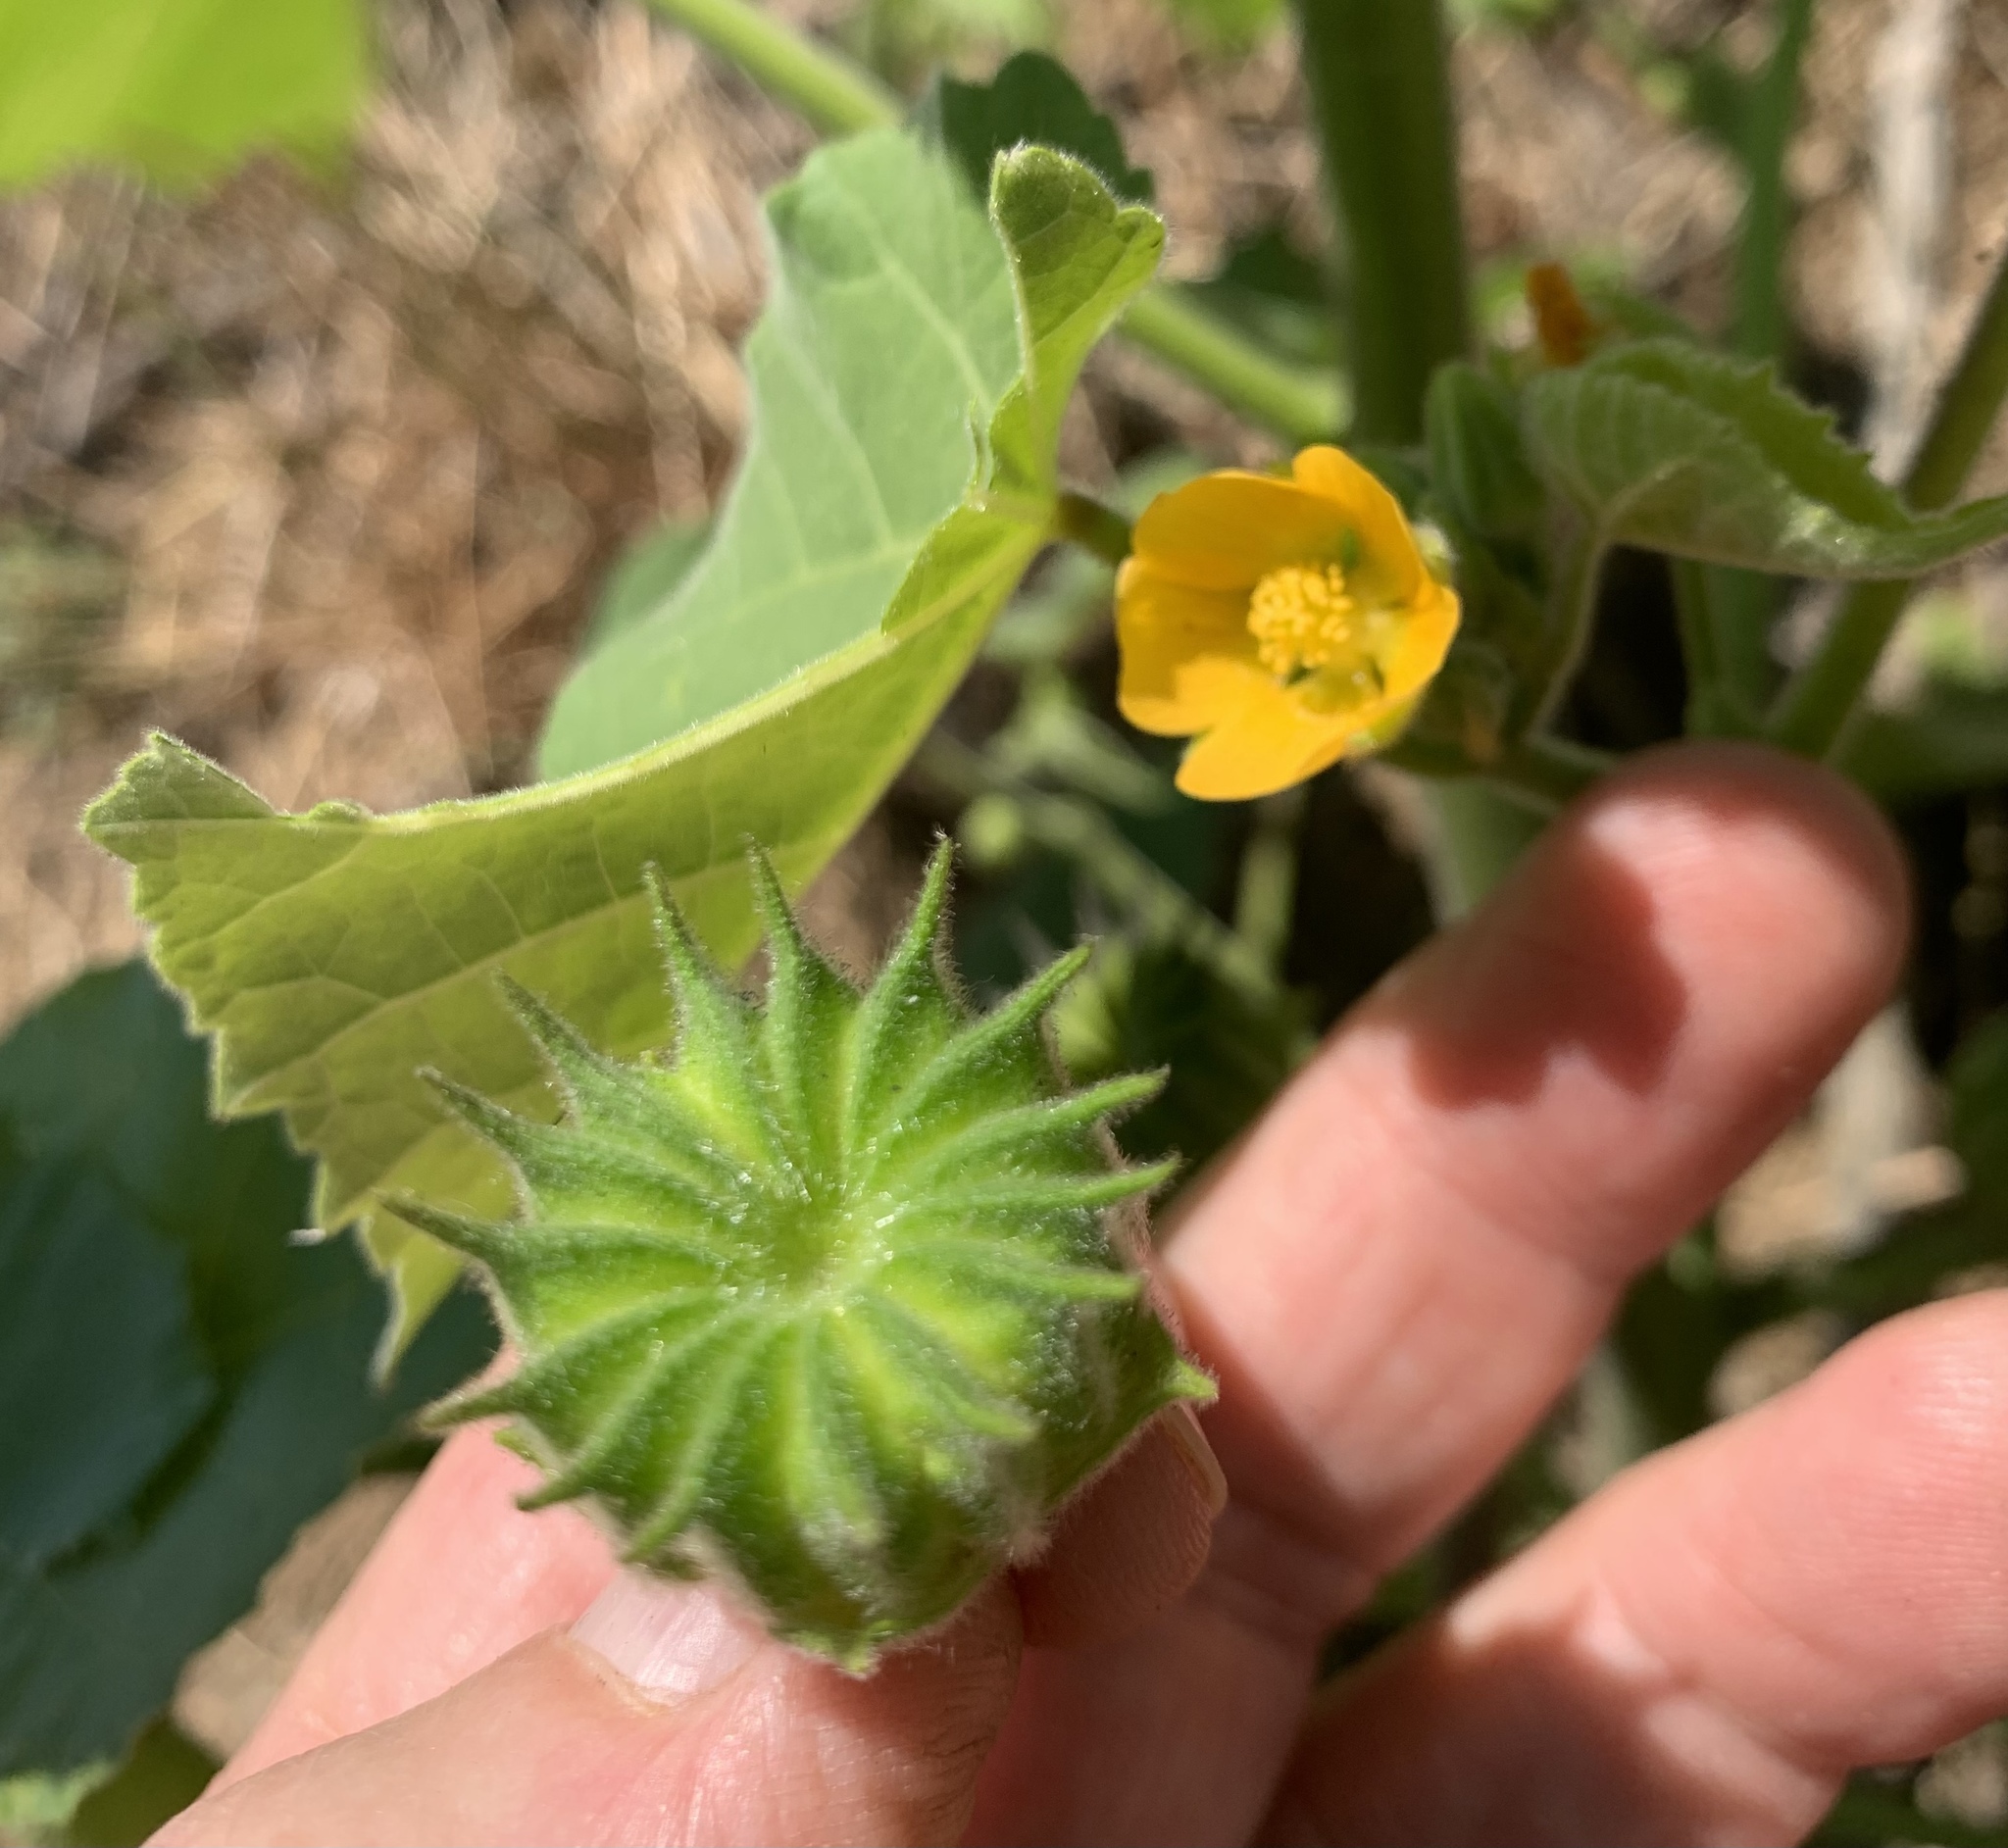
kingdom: Plantae
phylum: Tracheophyta
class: Magnoliopsida
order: Malvales
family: Malvaceae
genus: Abutilon
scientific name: Abutilon theophrasti
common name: Velvetleaf
